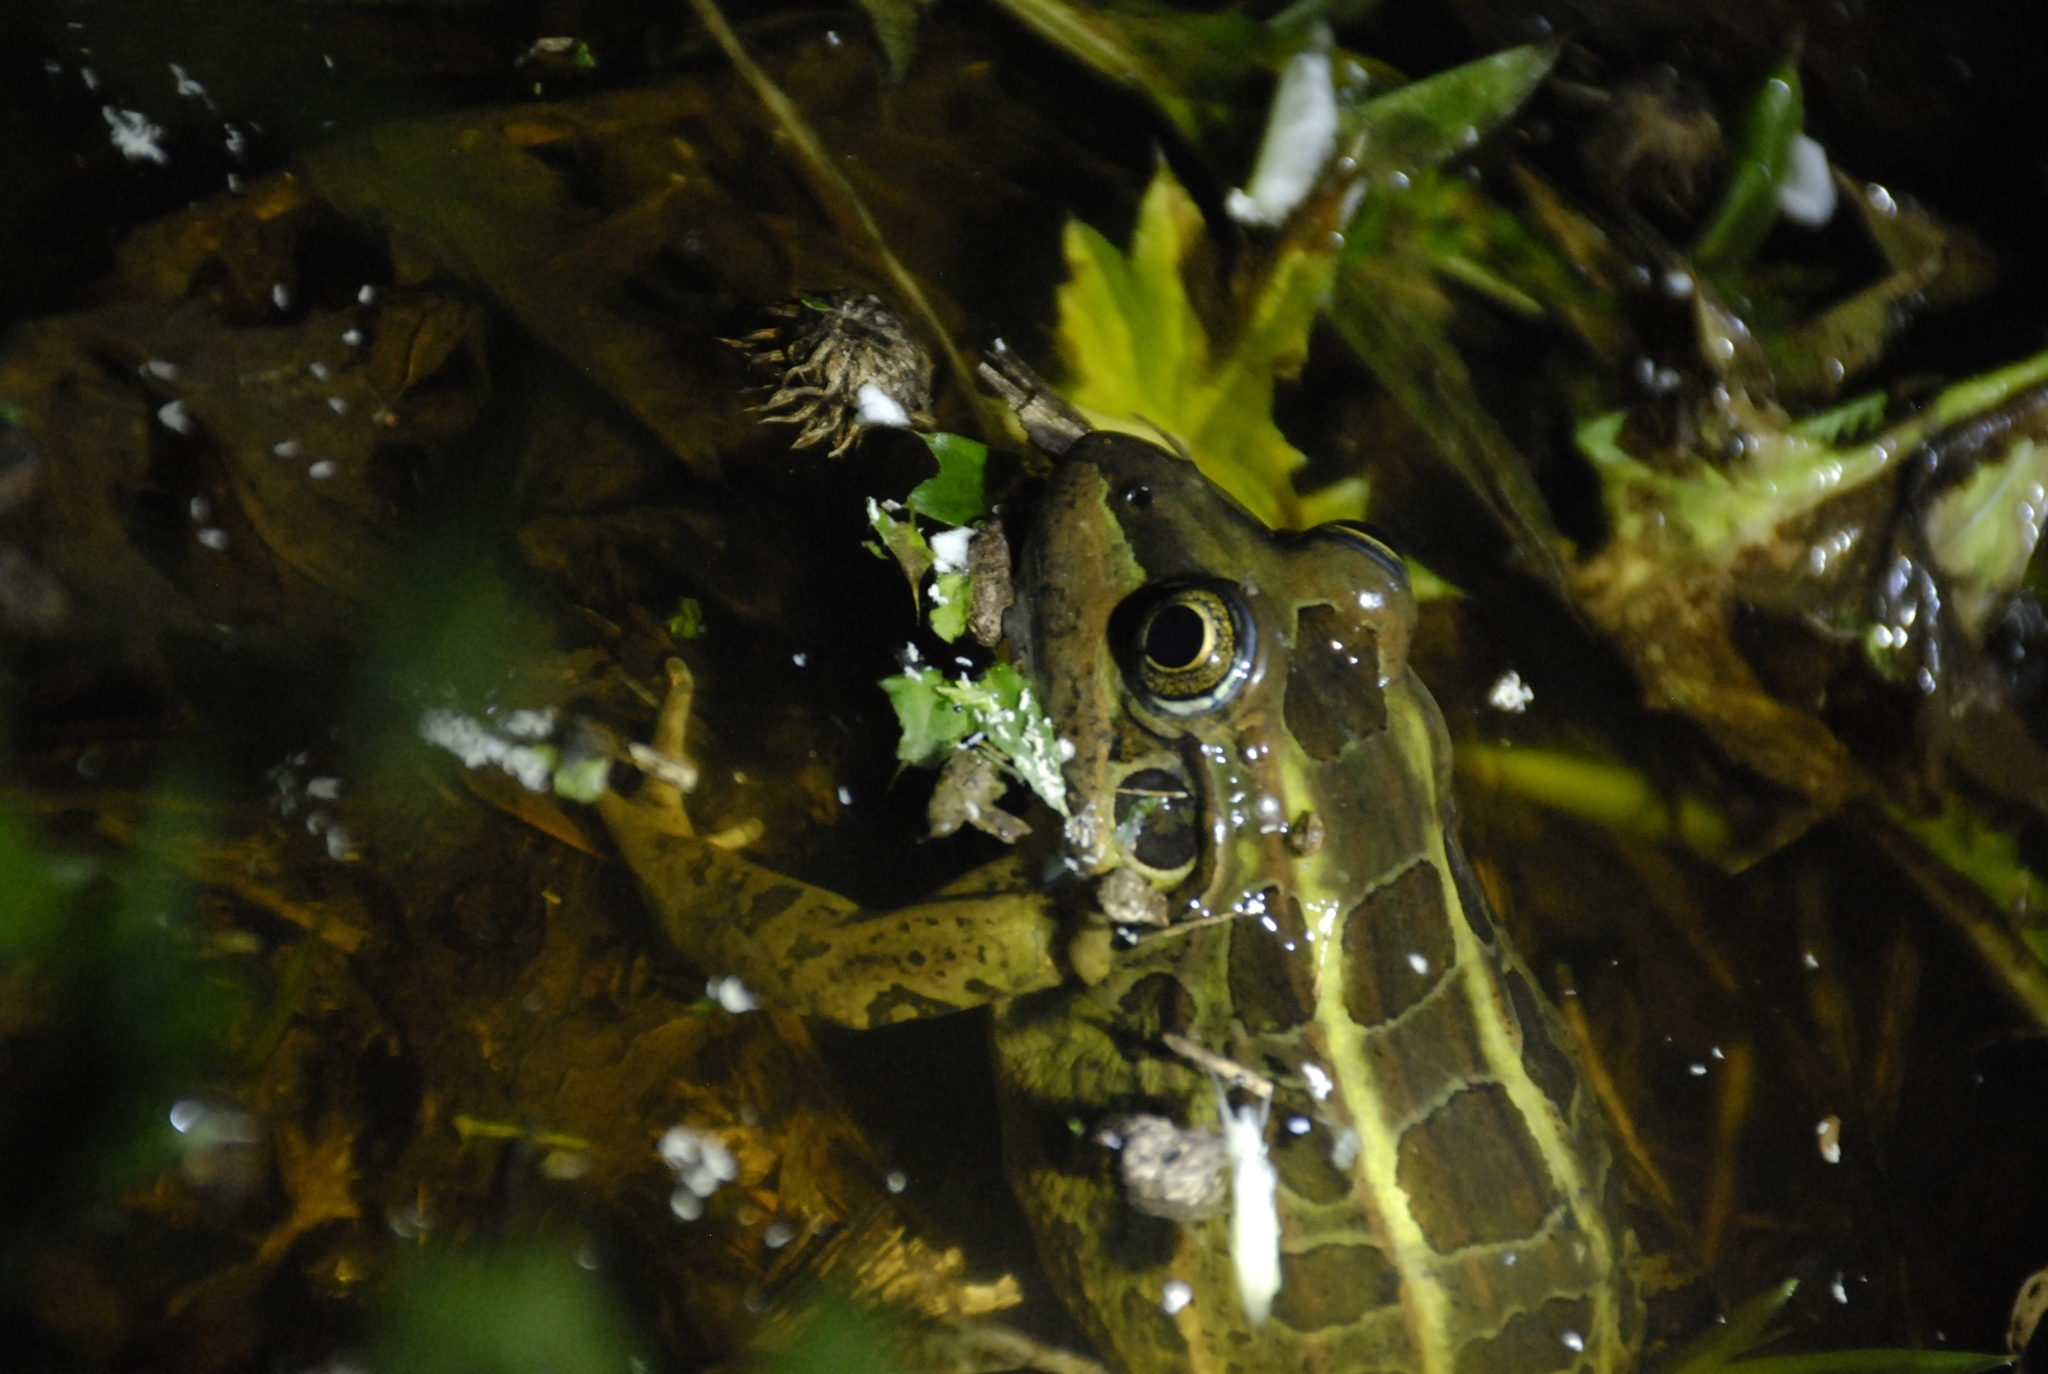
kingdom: Animalia
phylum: Chordata
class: Amphibia
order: Anura
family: Leptodactylidae
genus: Leptodactylus
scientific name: Leptodactylus luctator
